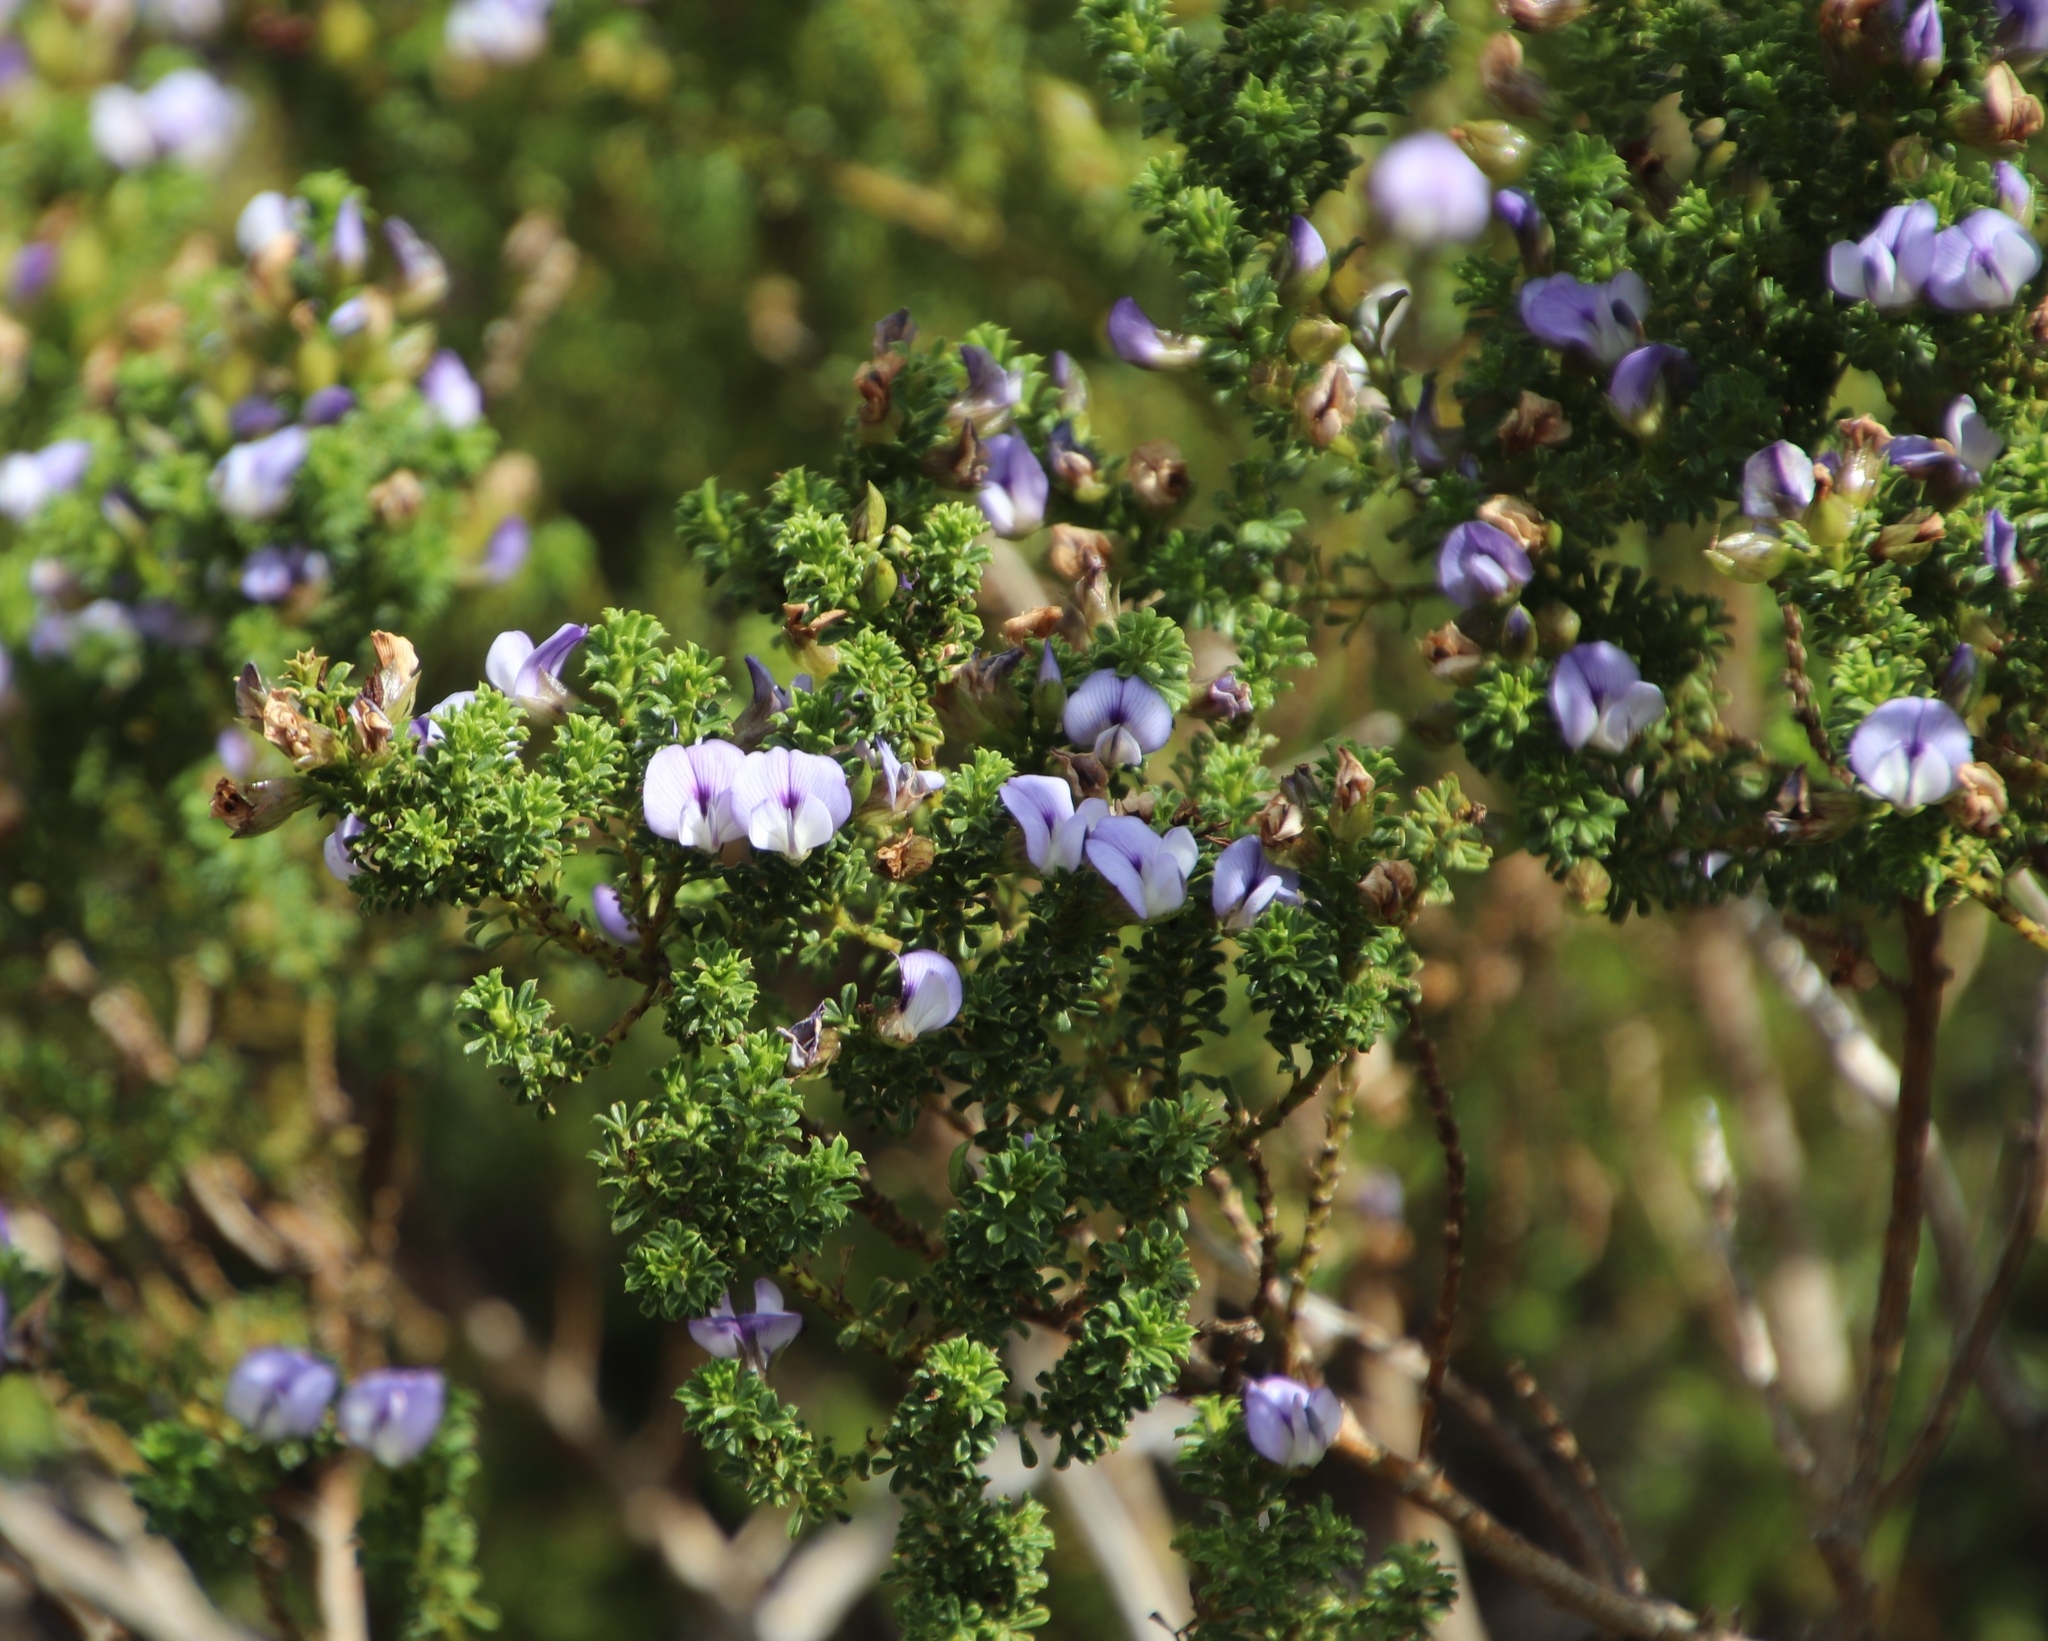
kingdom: Plantae
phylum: Tracheophyta
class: Magnoliopsida
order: Fabales
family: Fabaceae
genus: Psoralea
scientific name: Psoralea aculeata
